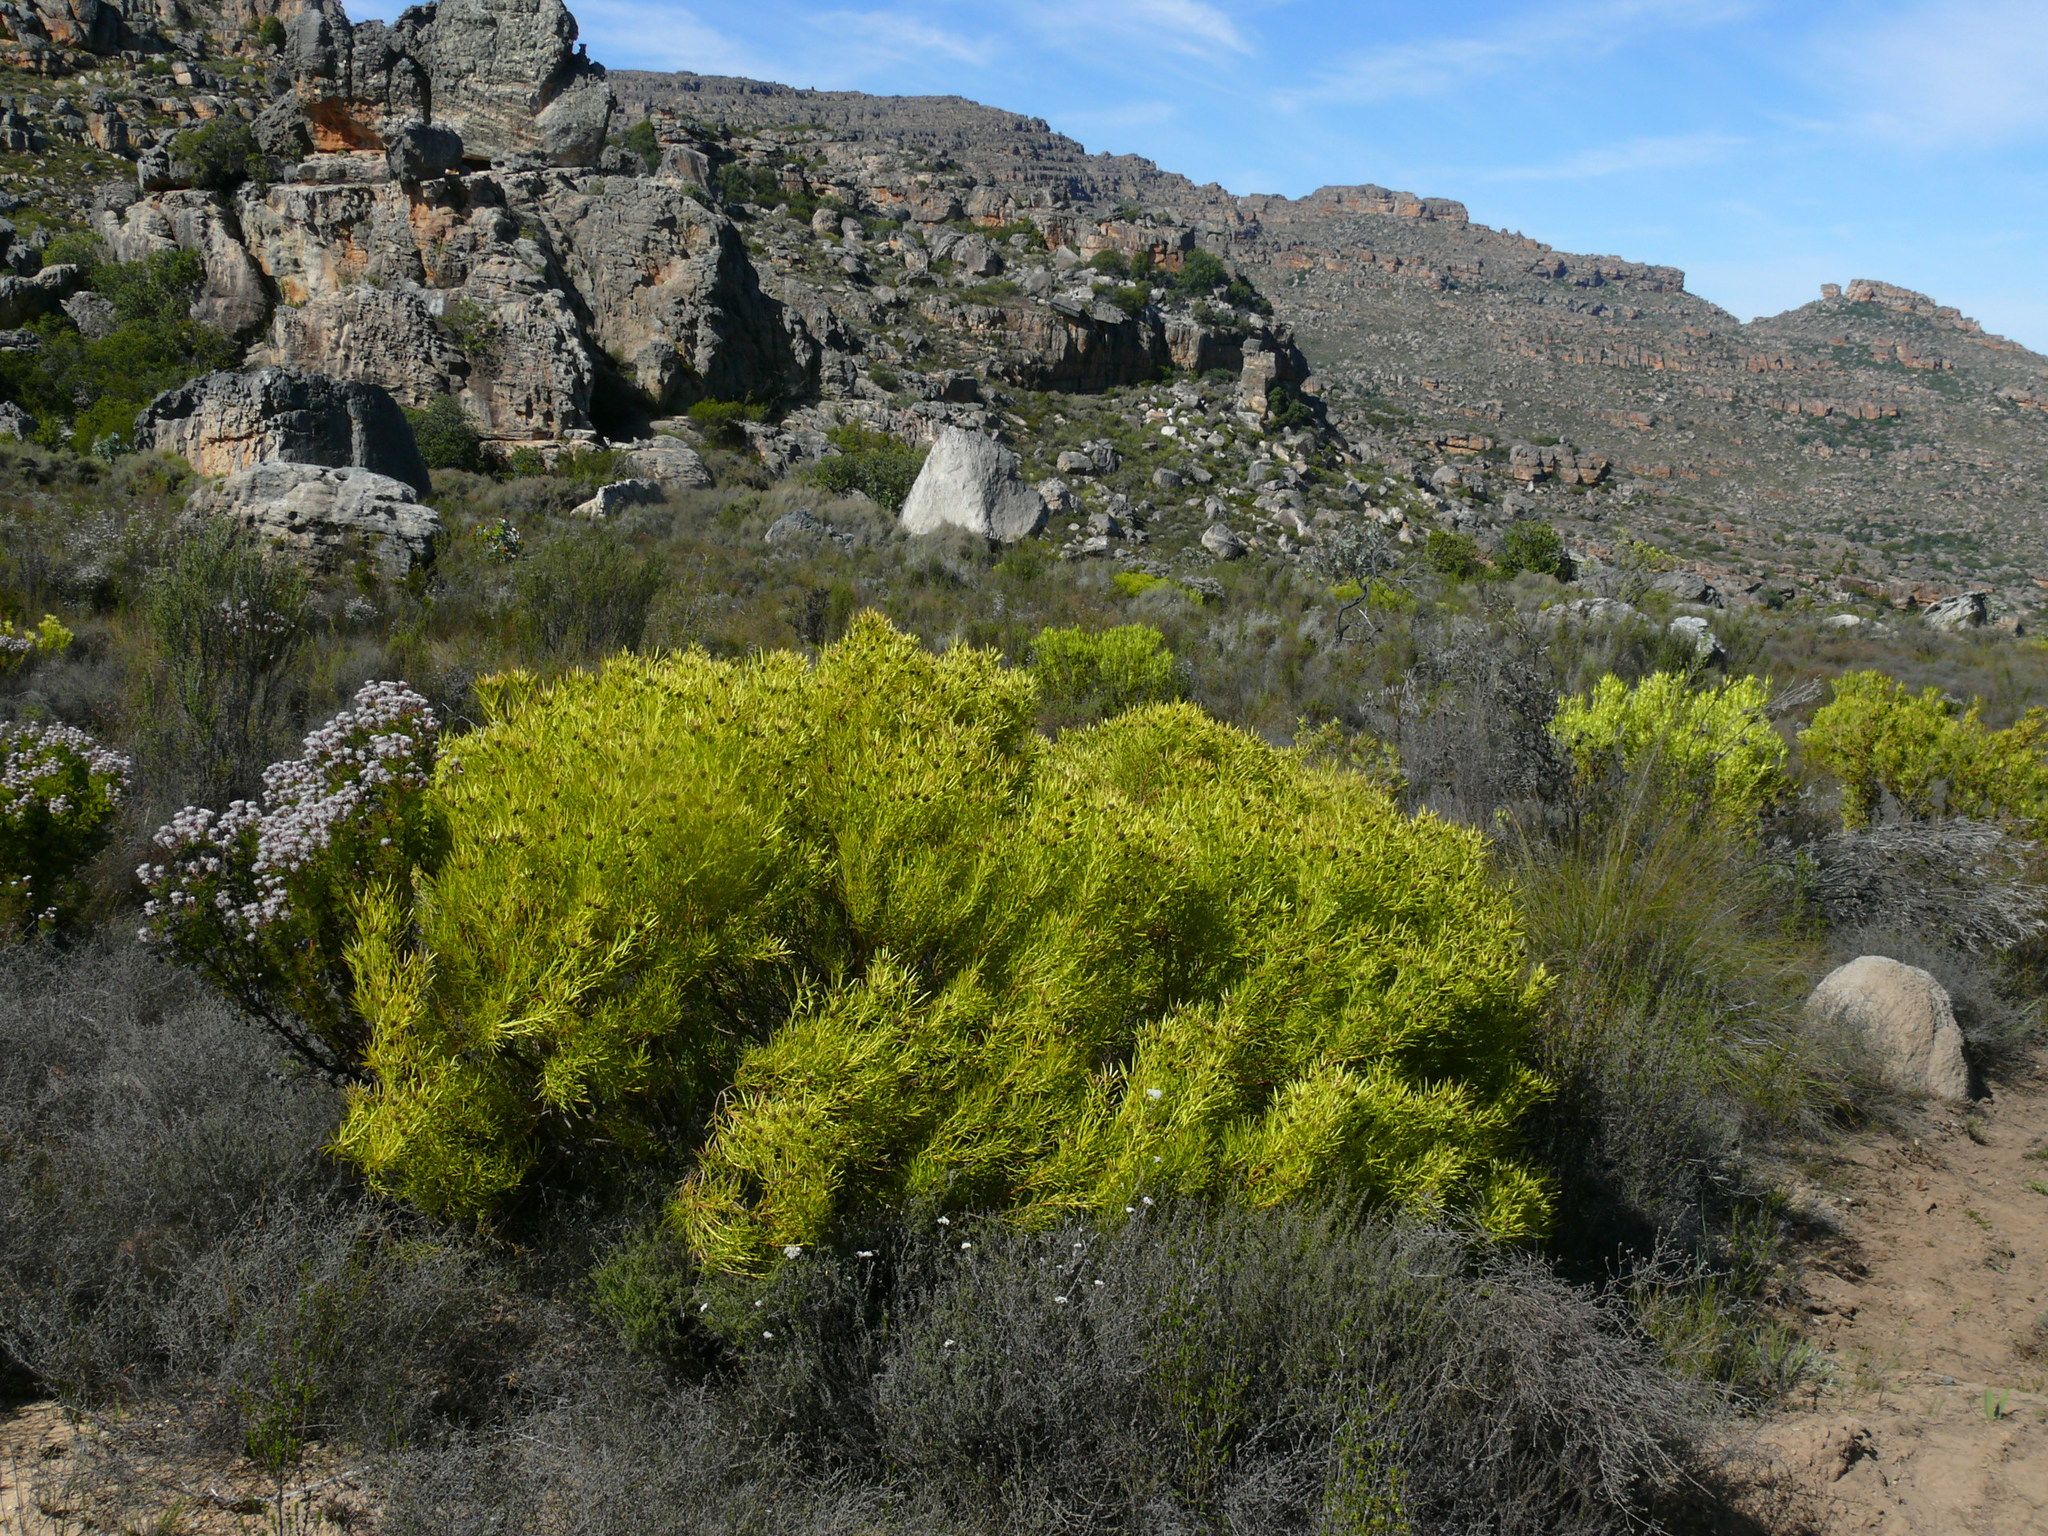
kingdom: Plantae
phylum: Tracheophyta
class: Magnoliopsida
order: Proteales
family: Proteaceae
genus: Leucadendron
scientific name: Leucadendron salignum
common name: Common sunshine conebush
